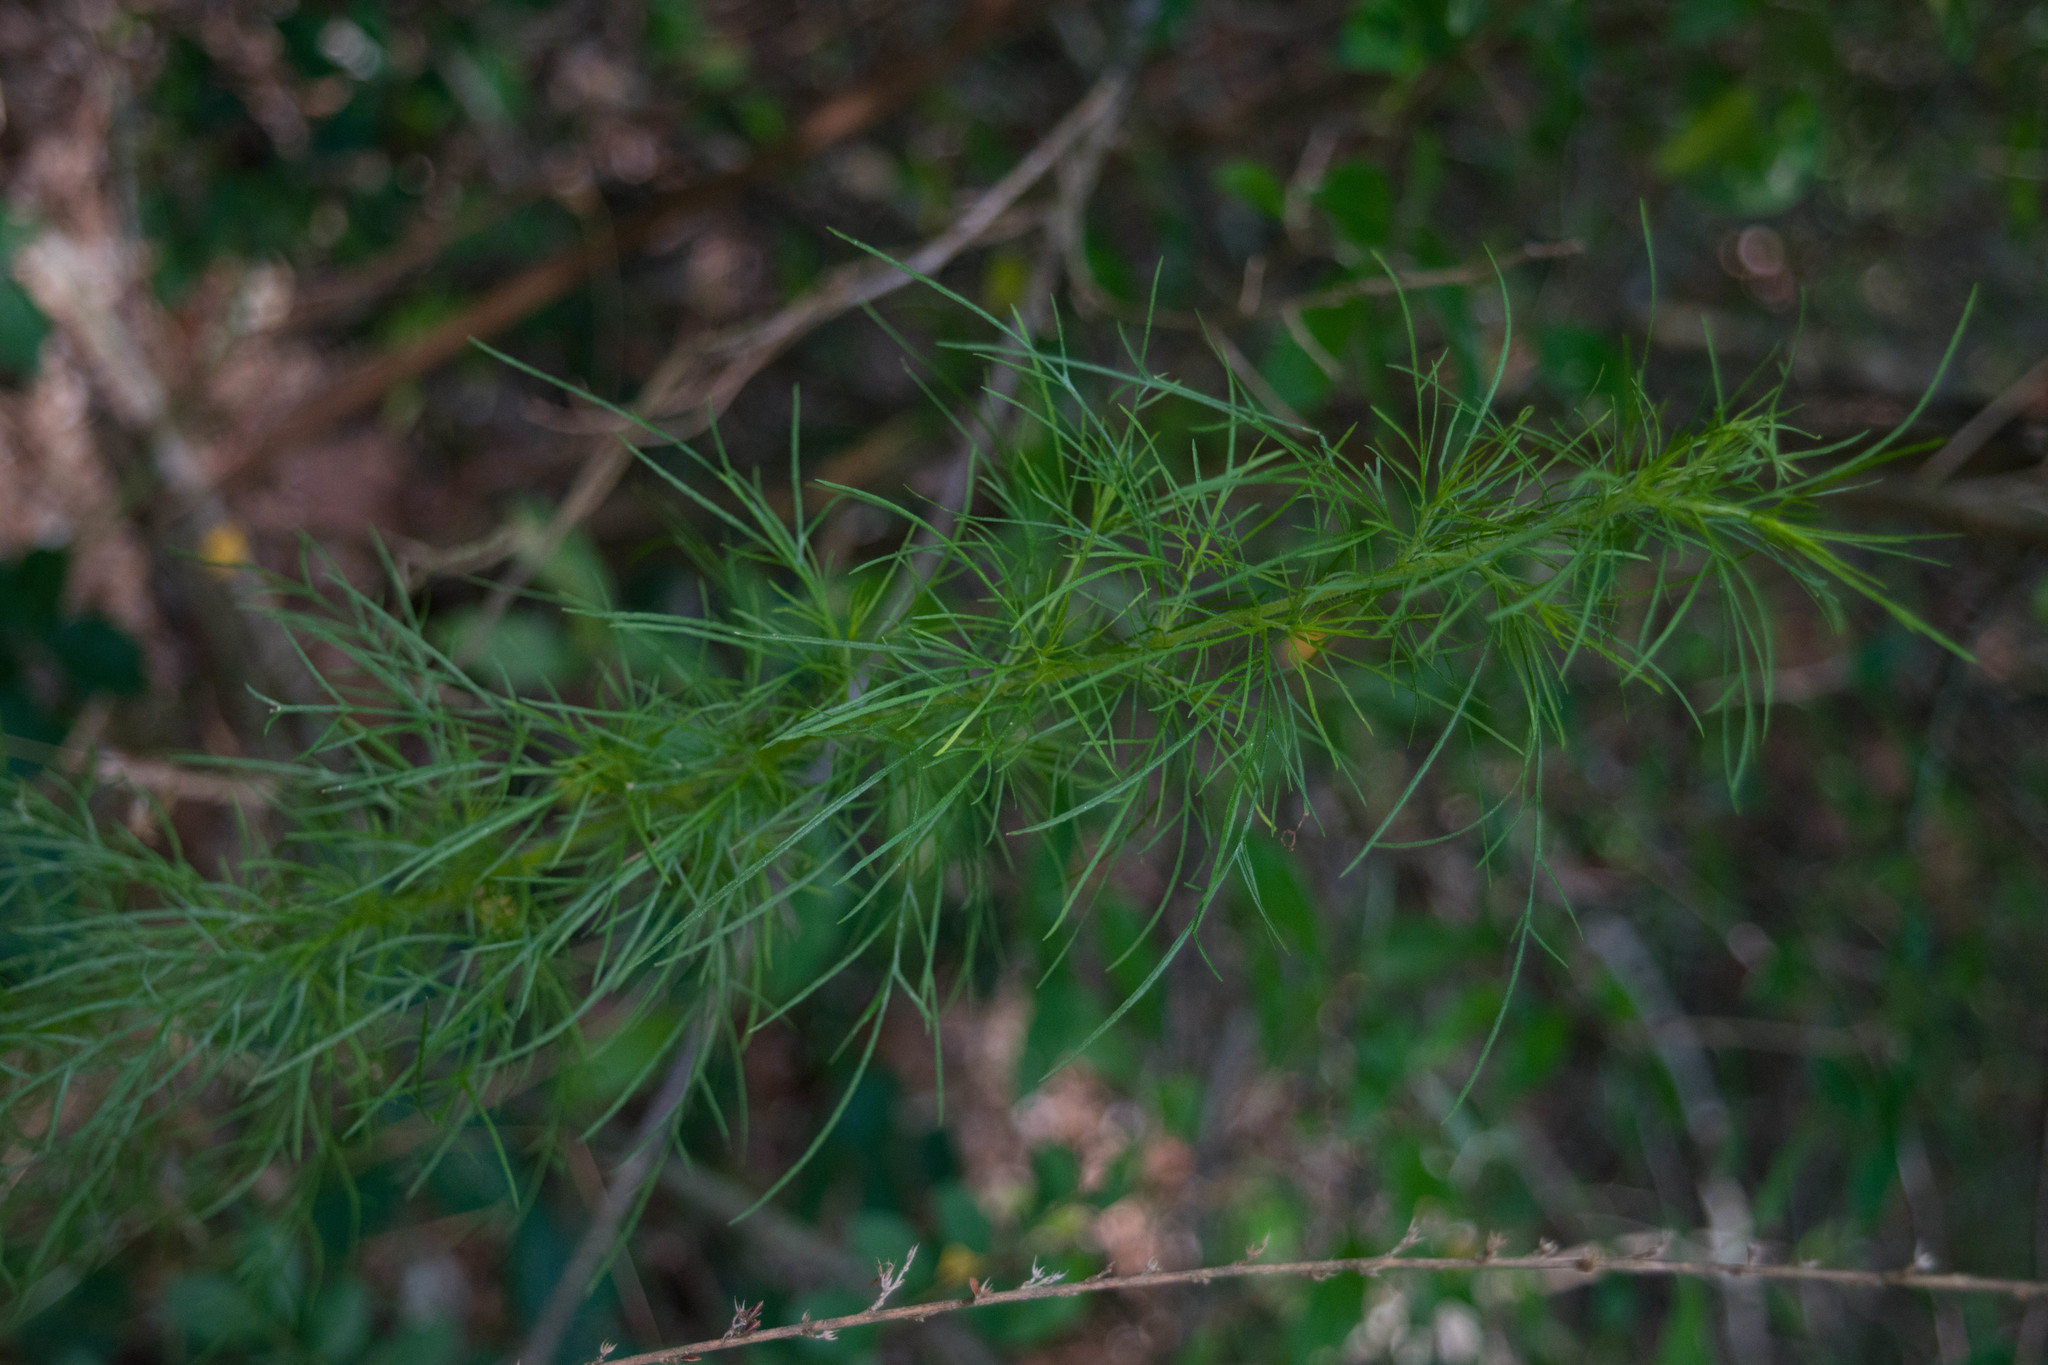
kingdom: Plantae
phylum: Tracheophyta
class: Magnoliopsida
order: Asterales
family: Asteraceae
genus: Eupatorium
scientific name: Eupatorium capillifolium
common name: Dog-fennel
